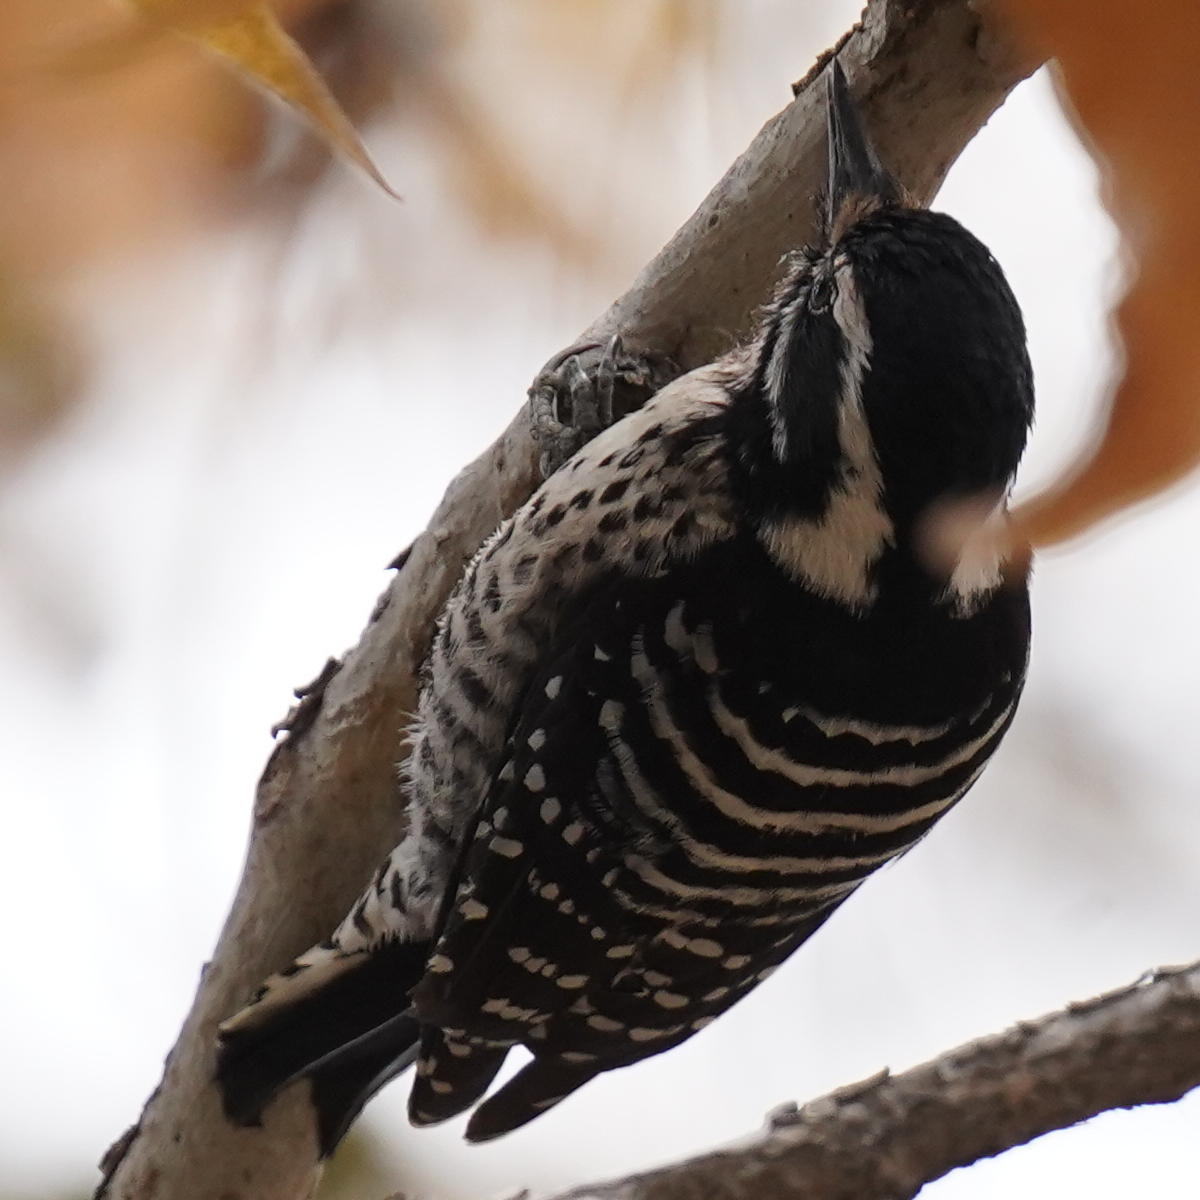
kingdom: Animalia
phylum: Chordata
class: Aves
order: Piciformes
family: Picidae
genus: Dryobates
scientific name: Dryobates nuttallii
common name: Nuttall's woodpecker
